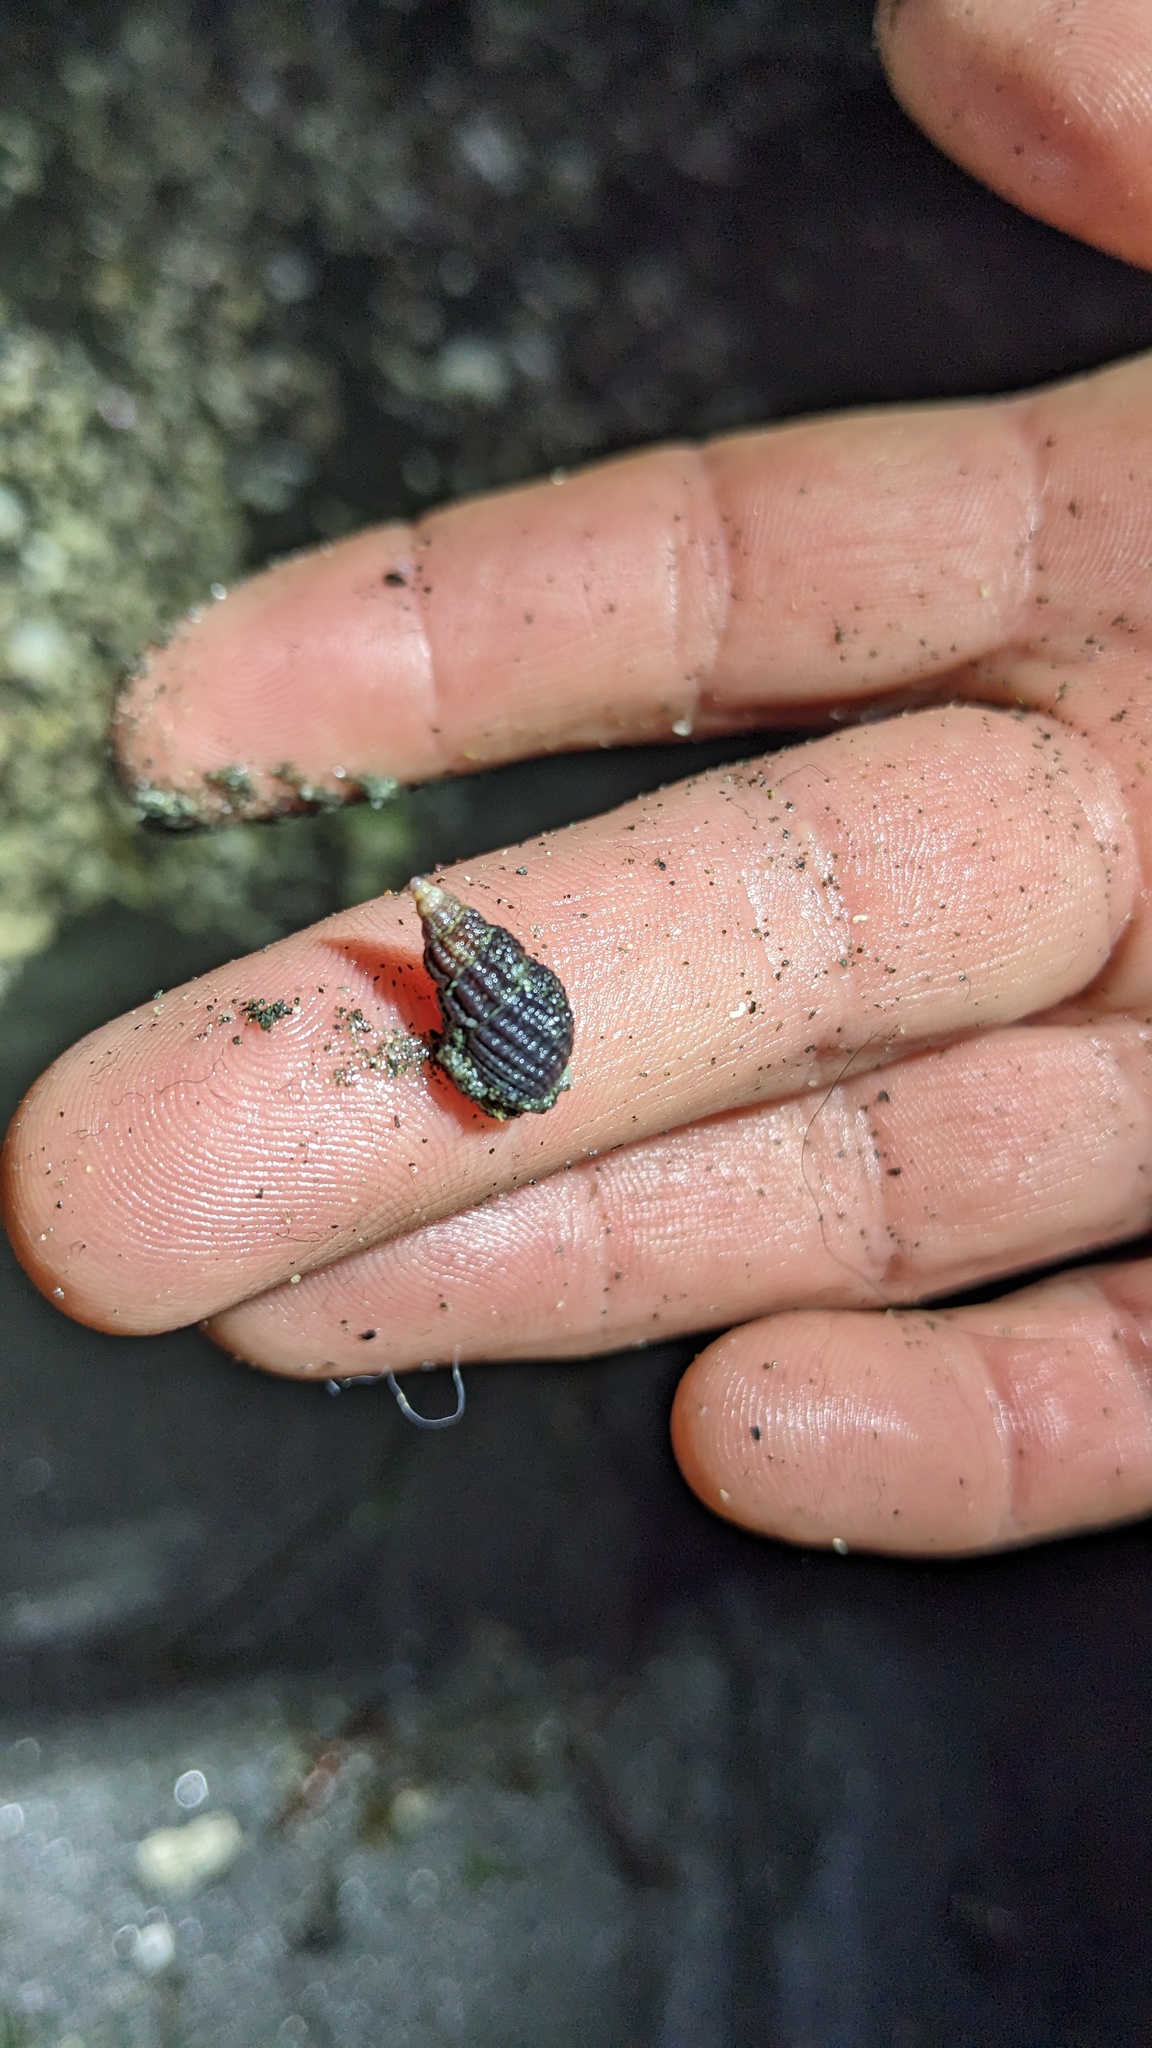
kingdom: Animalia
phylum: Mollusca
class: Gastropoda
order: Neogastropoda
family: Nassariidae
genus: Nassarius
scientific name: Nassarius mendicus
